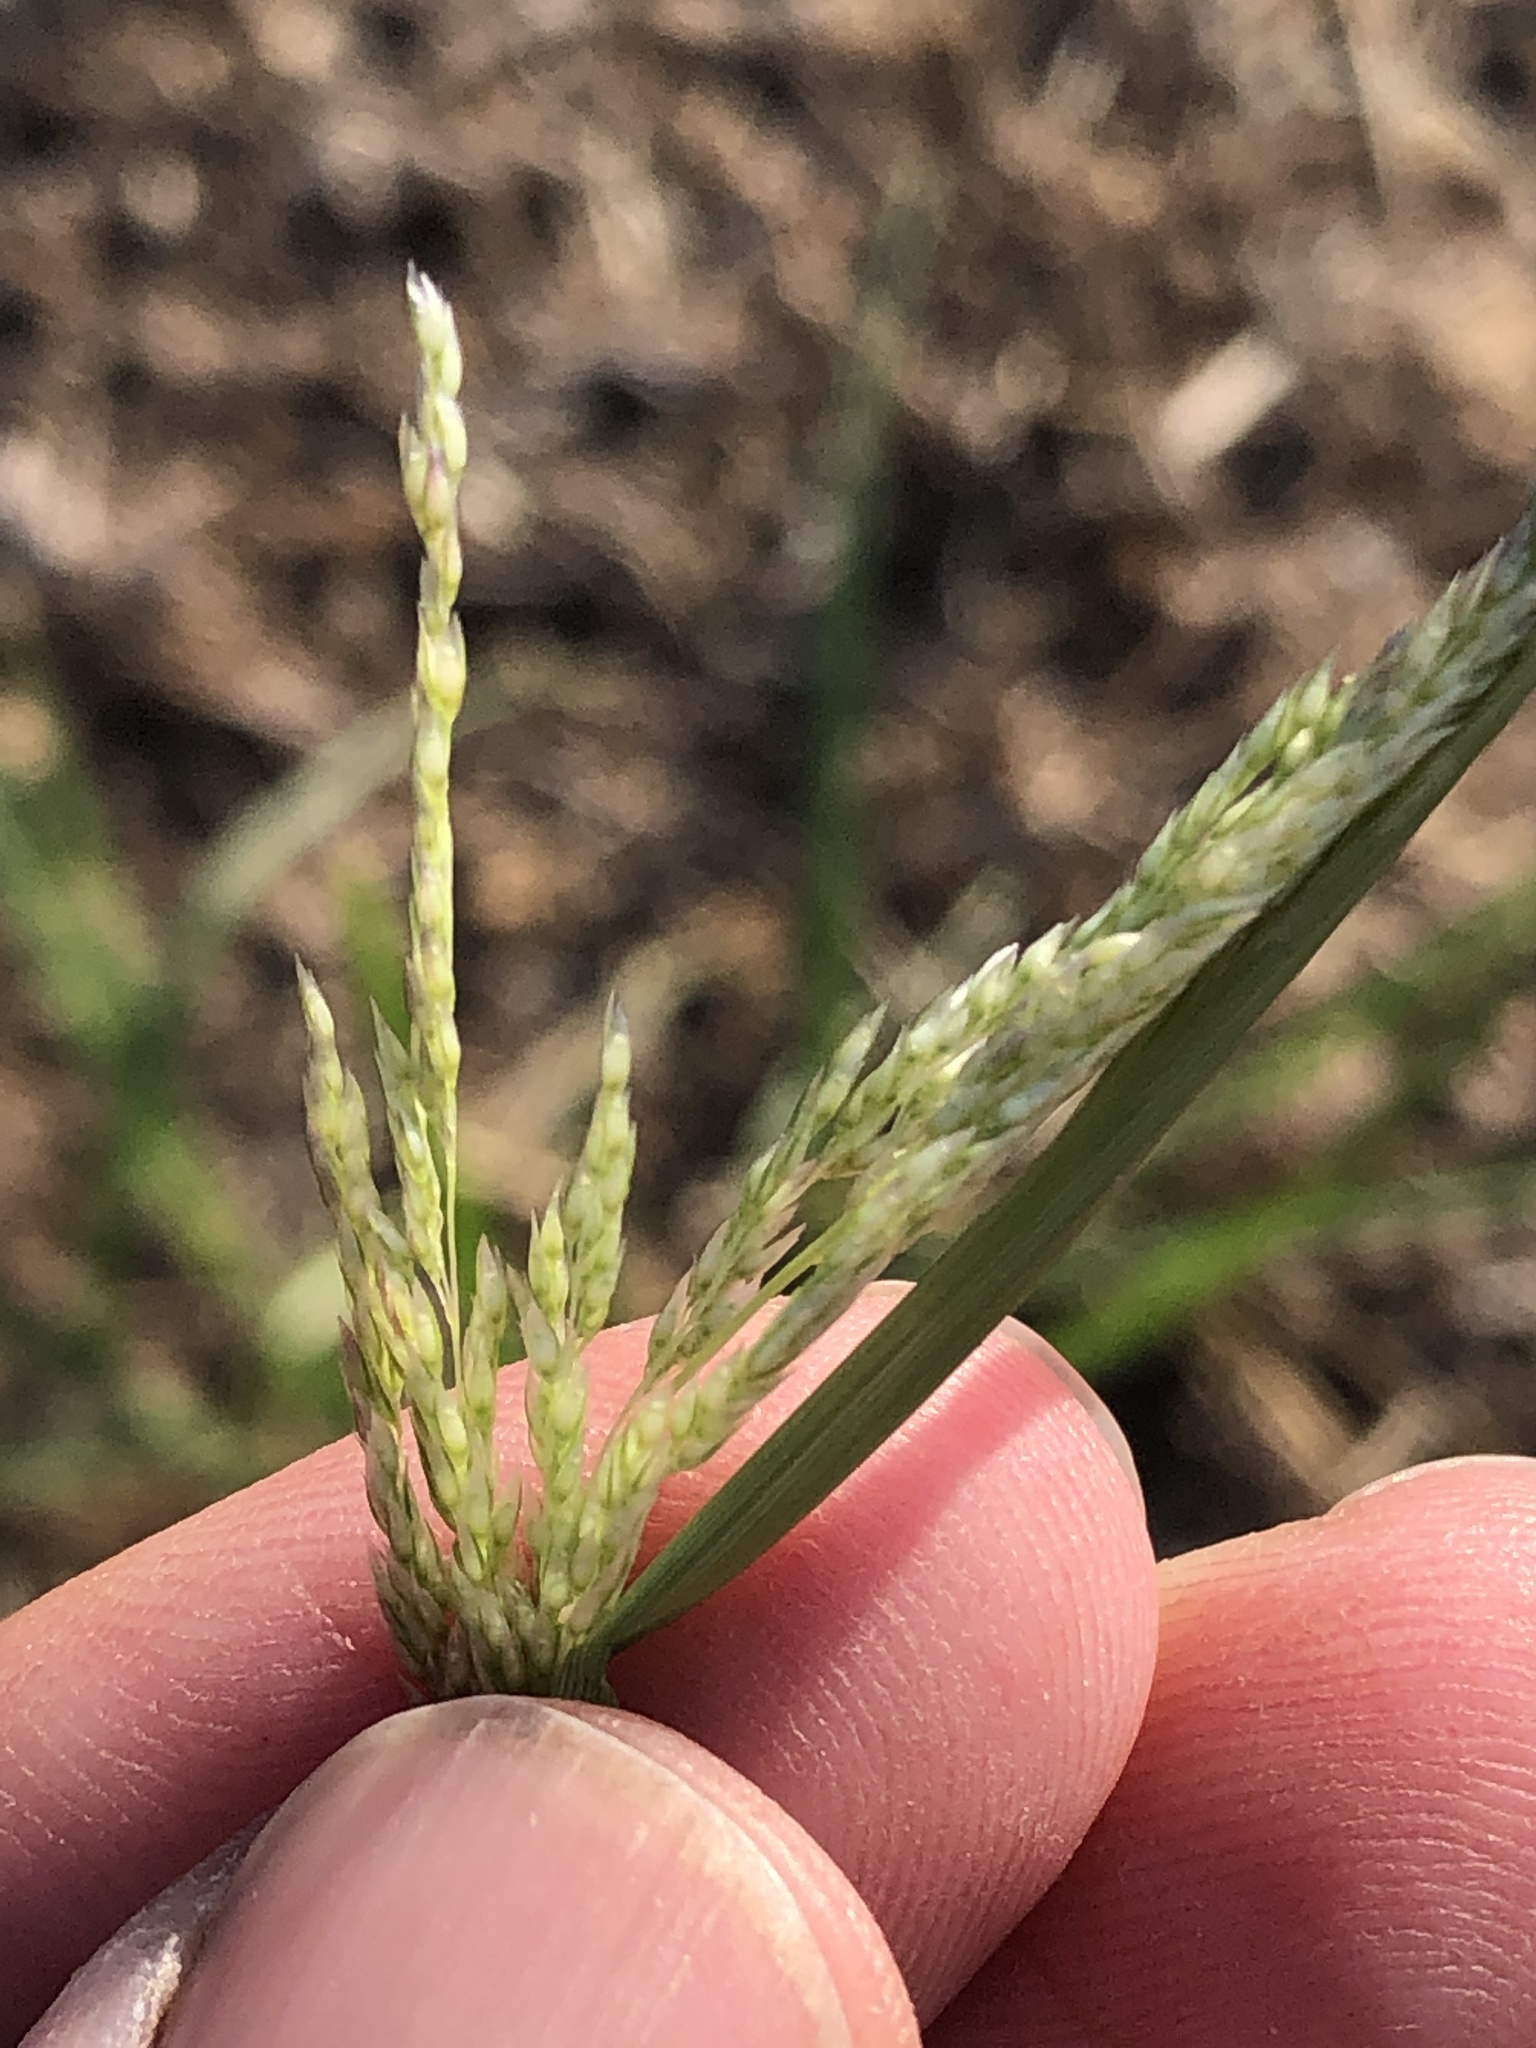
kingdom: Plantae
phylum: Tracheophyta
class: Liliopsida
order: Poales
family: Poaceae
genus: Sporobolus
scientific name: Sporobolus cryptandrus
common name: Sand dropseed
